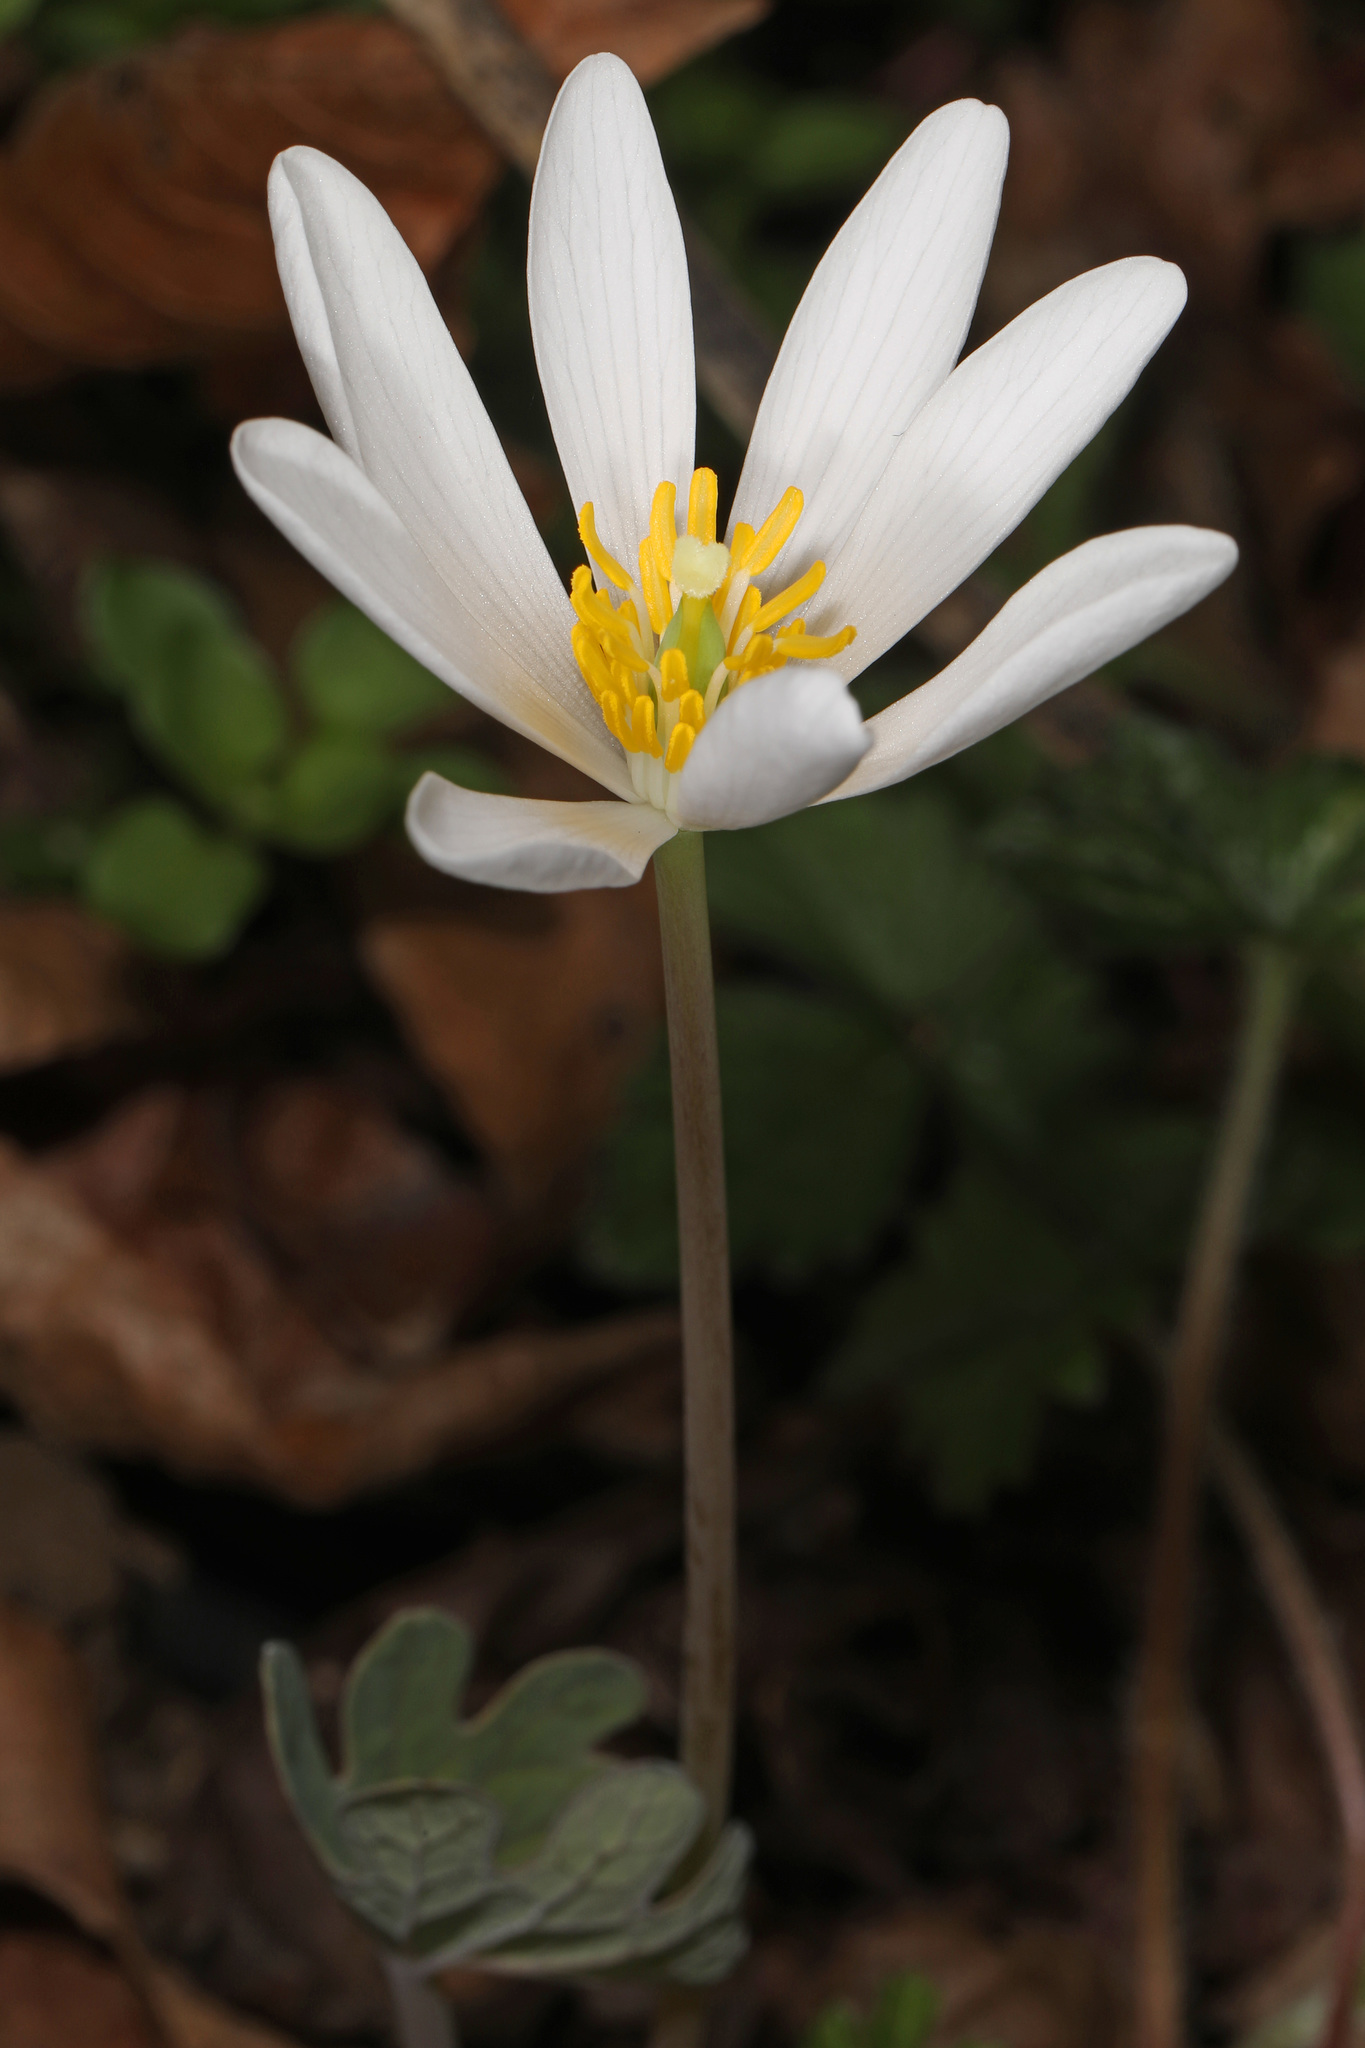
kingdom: Plantae
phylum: Tracheophyta
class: Magnoliopsida
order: Ranunculales
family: Papaveraceae
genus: Sanguinaria
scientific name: Sanguinaria canadensis
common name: Bloodroot
